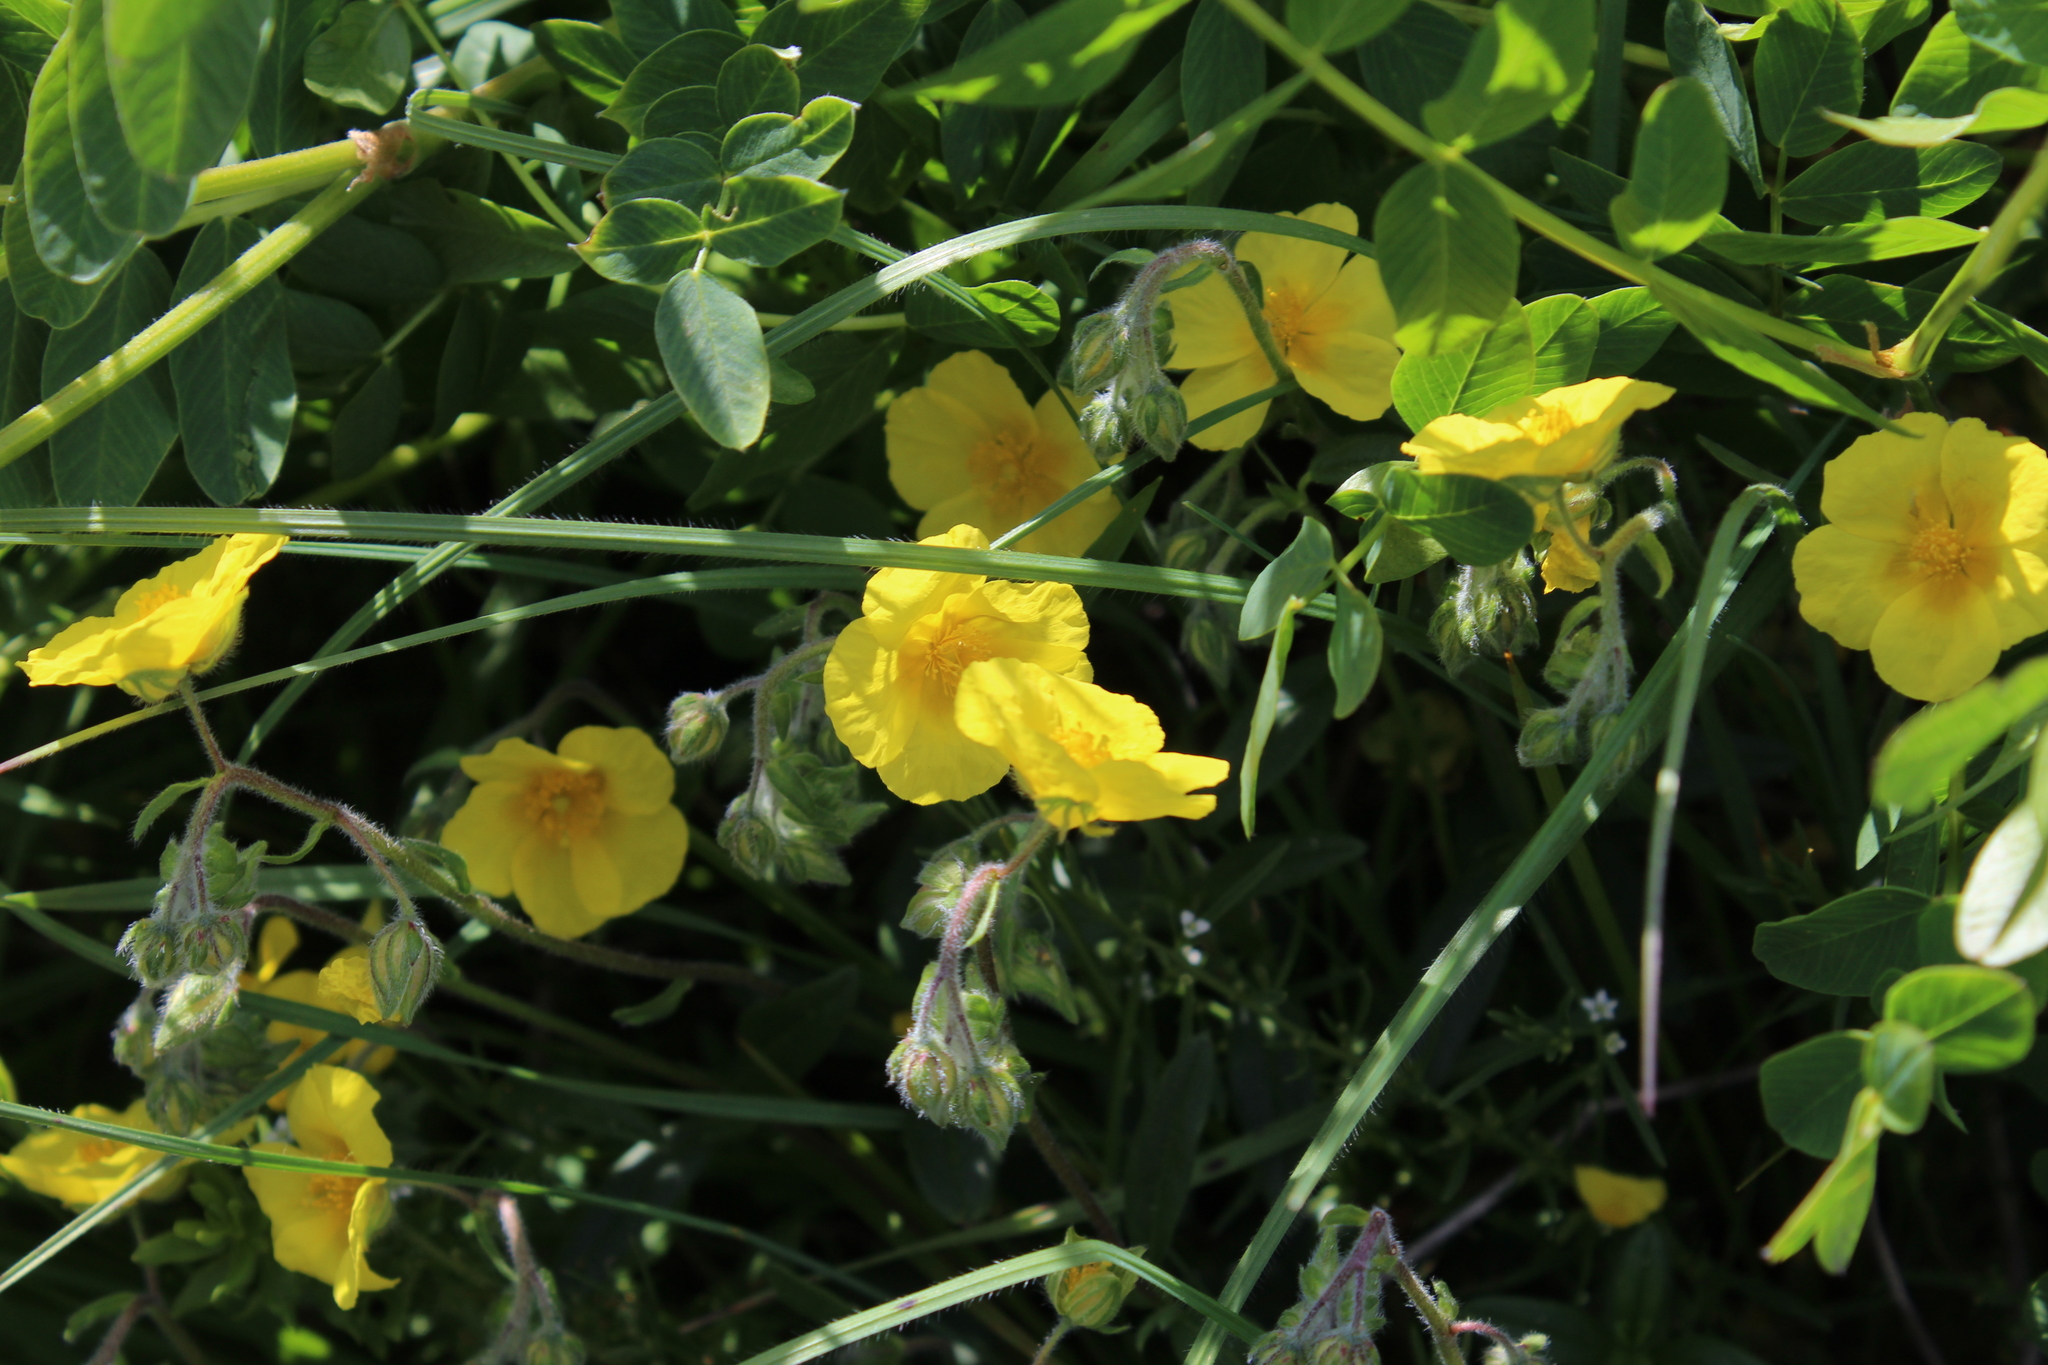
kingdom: Plantae
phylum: Tracheophyta
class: Magnoliopsida
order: Malvales
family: Cistaceae
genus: Helianthemum
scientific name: Helianthemum nummularium
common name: Common rock-rose
